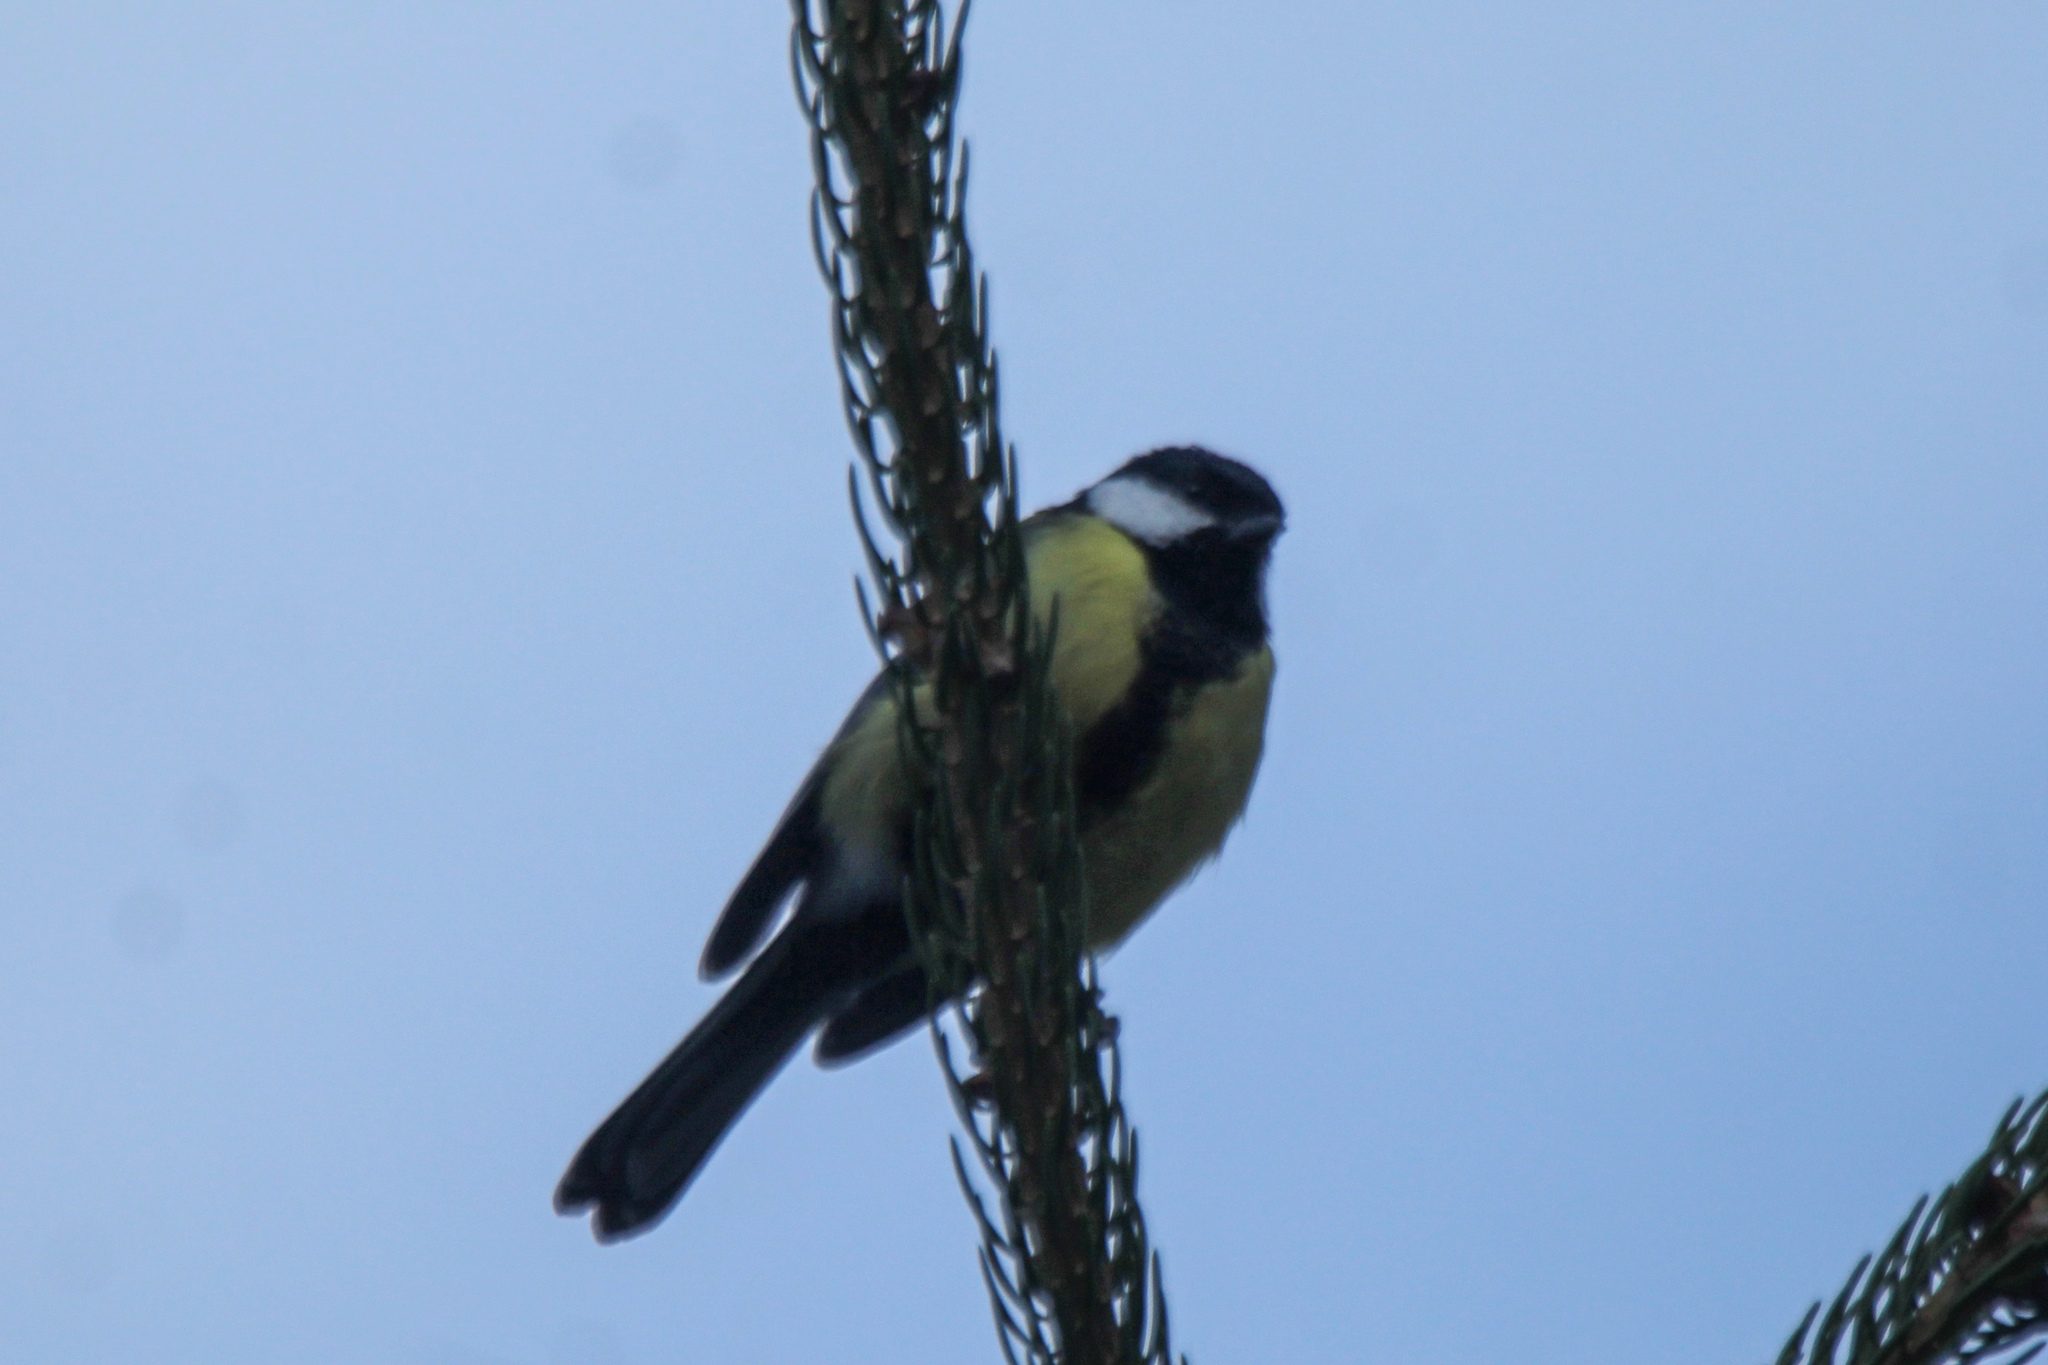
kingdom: Animalia
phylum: Chordata
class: Aves
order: Passeriformes
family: Paridae
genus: Parus
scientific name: Parus major
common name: Great tit
